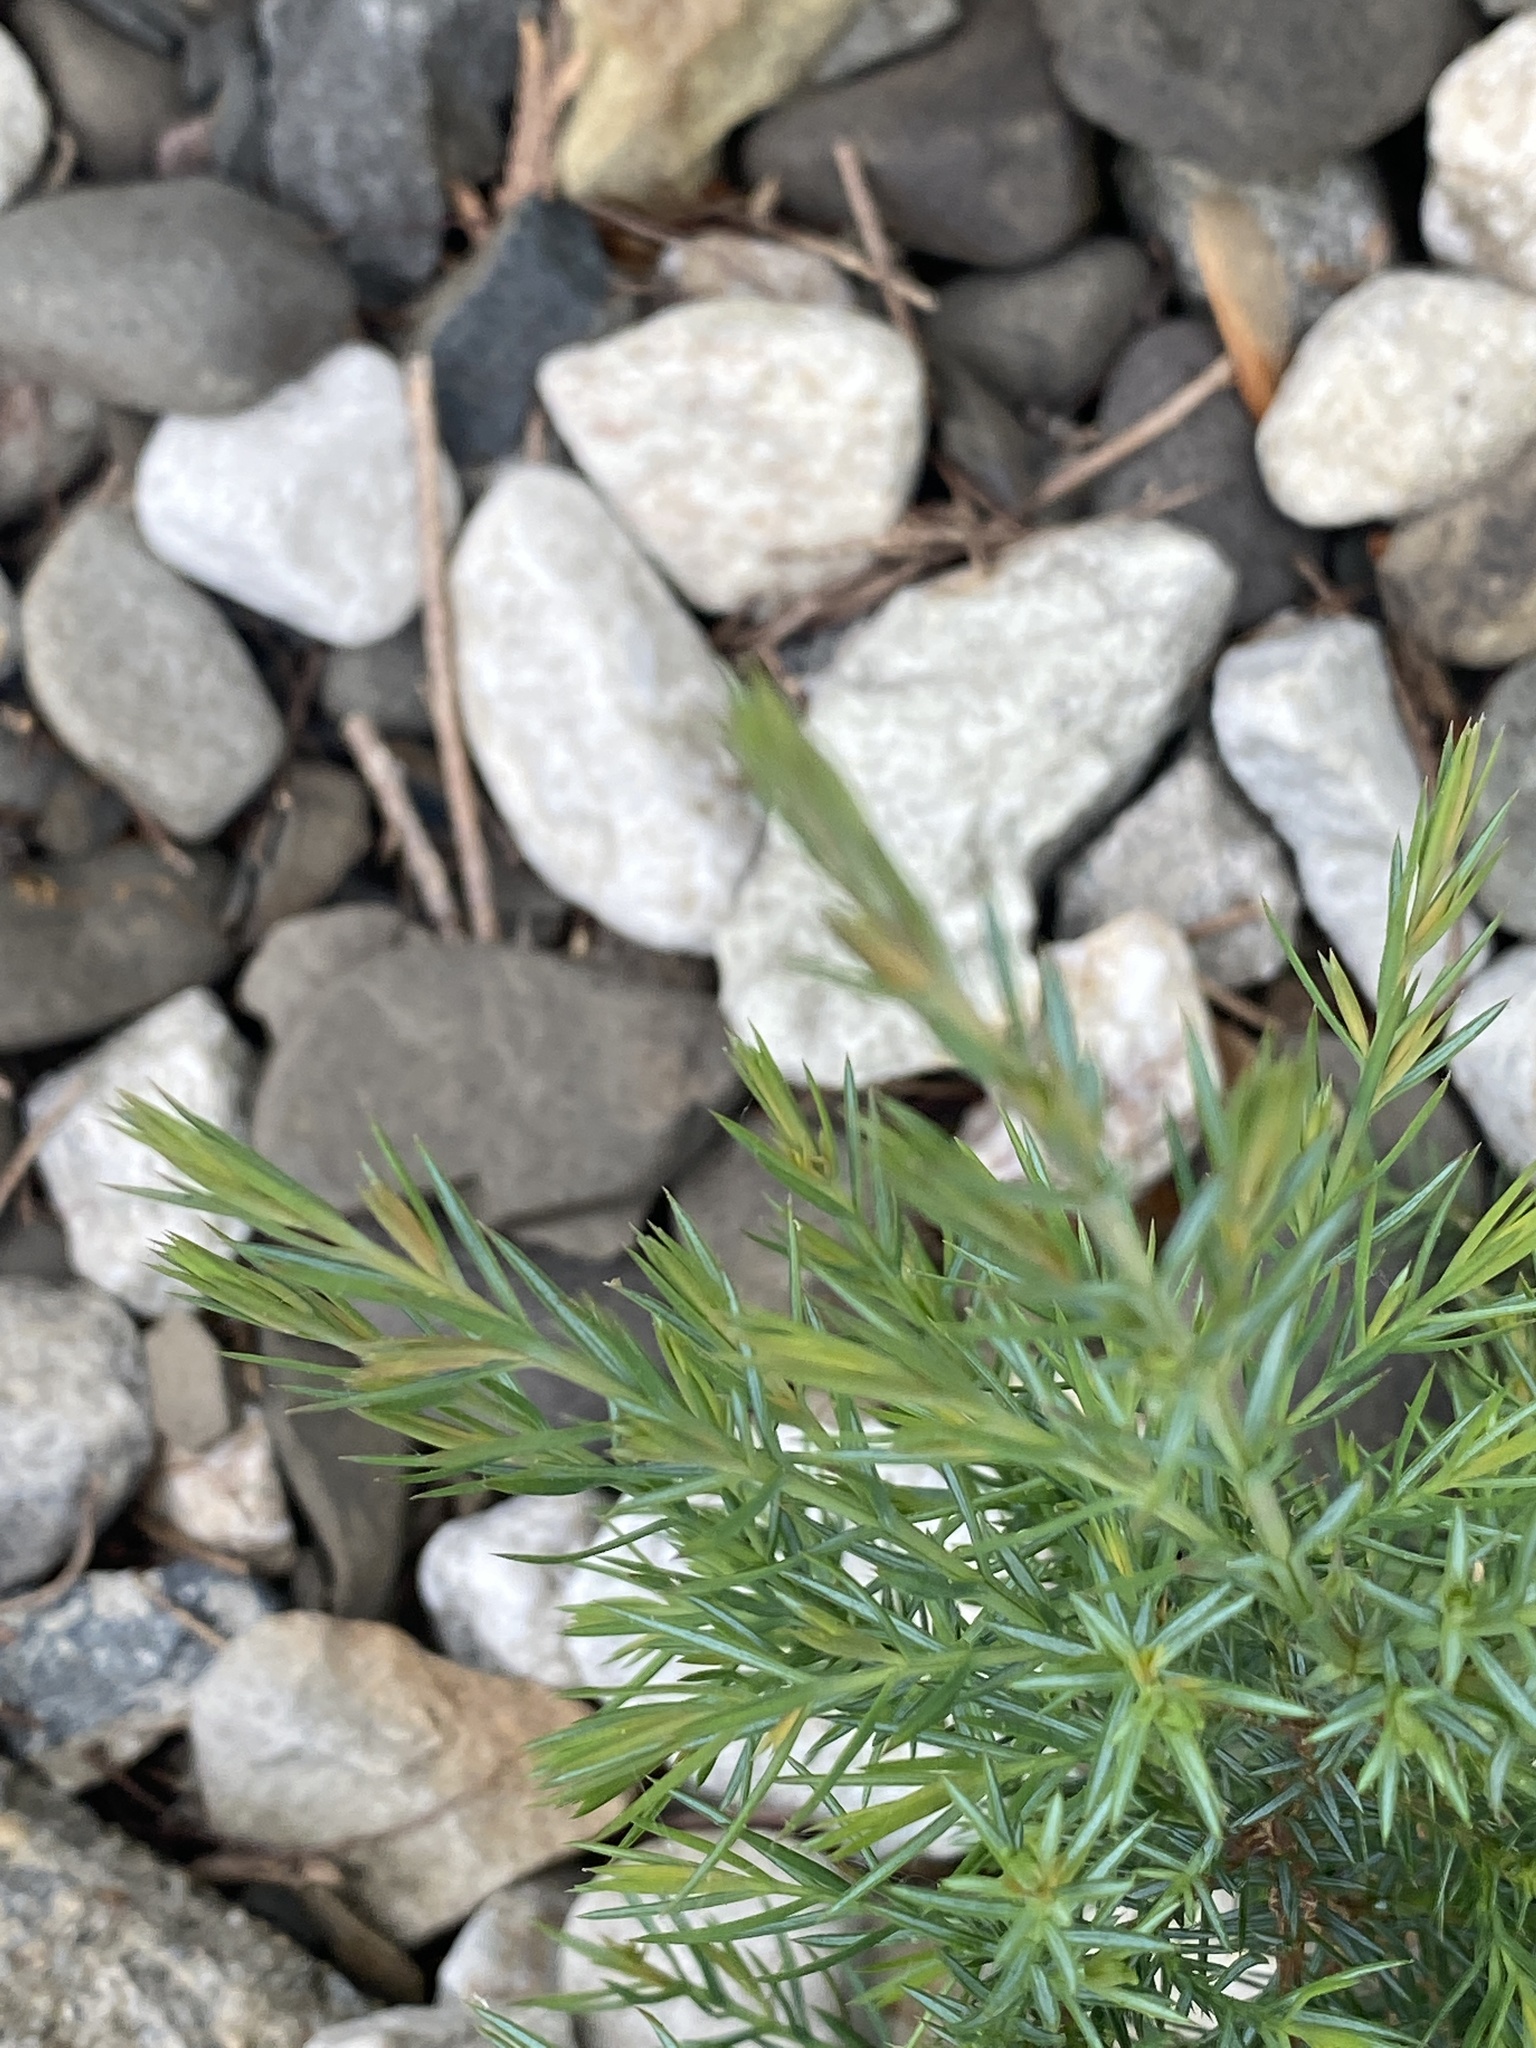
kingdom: Plantae
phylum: Tracheophyta
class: Pinopsida
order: Pinales
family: Cupressaceae
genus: Juniperus
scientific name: Juniperus virginiana
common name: Red juniper
